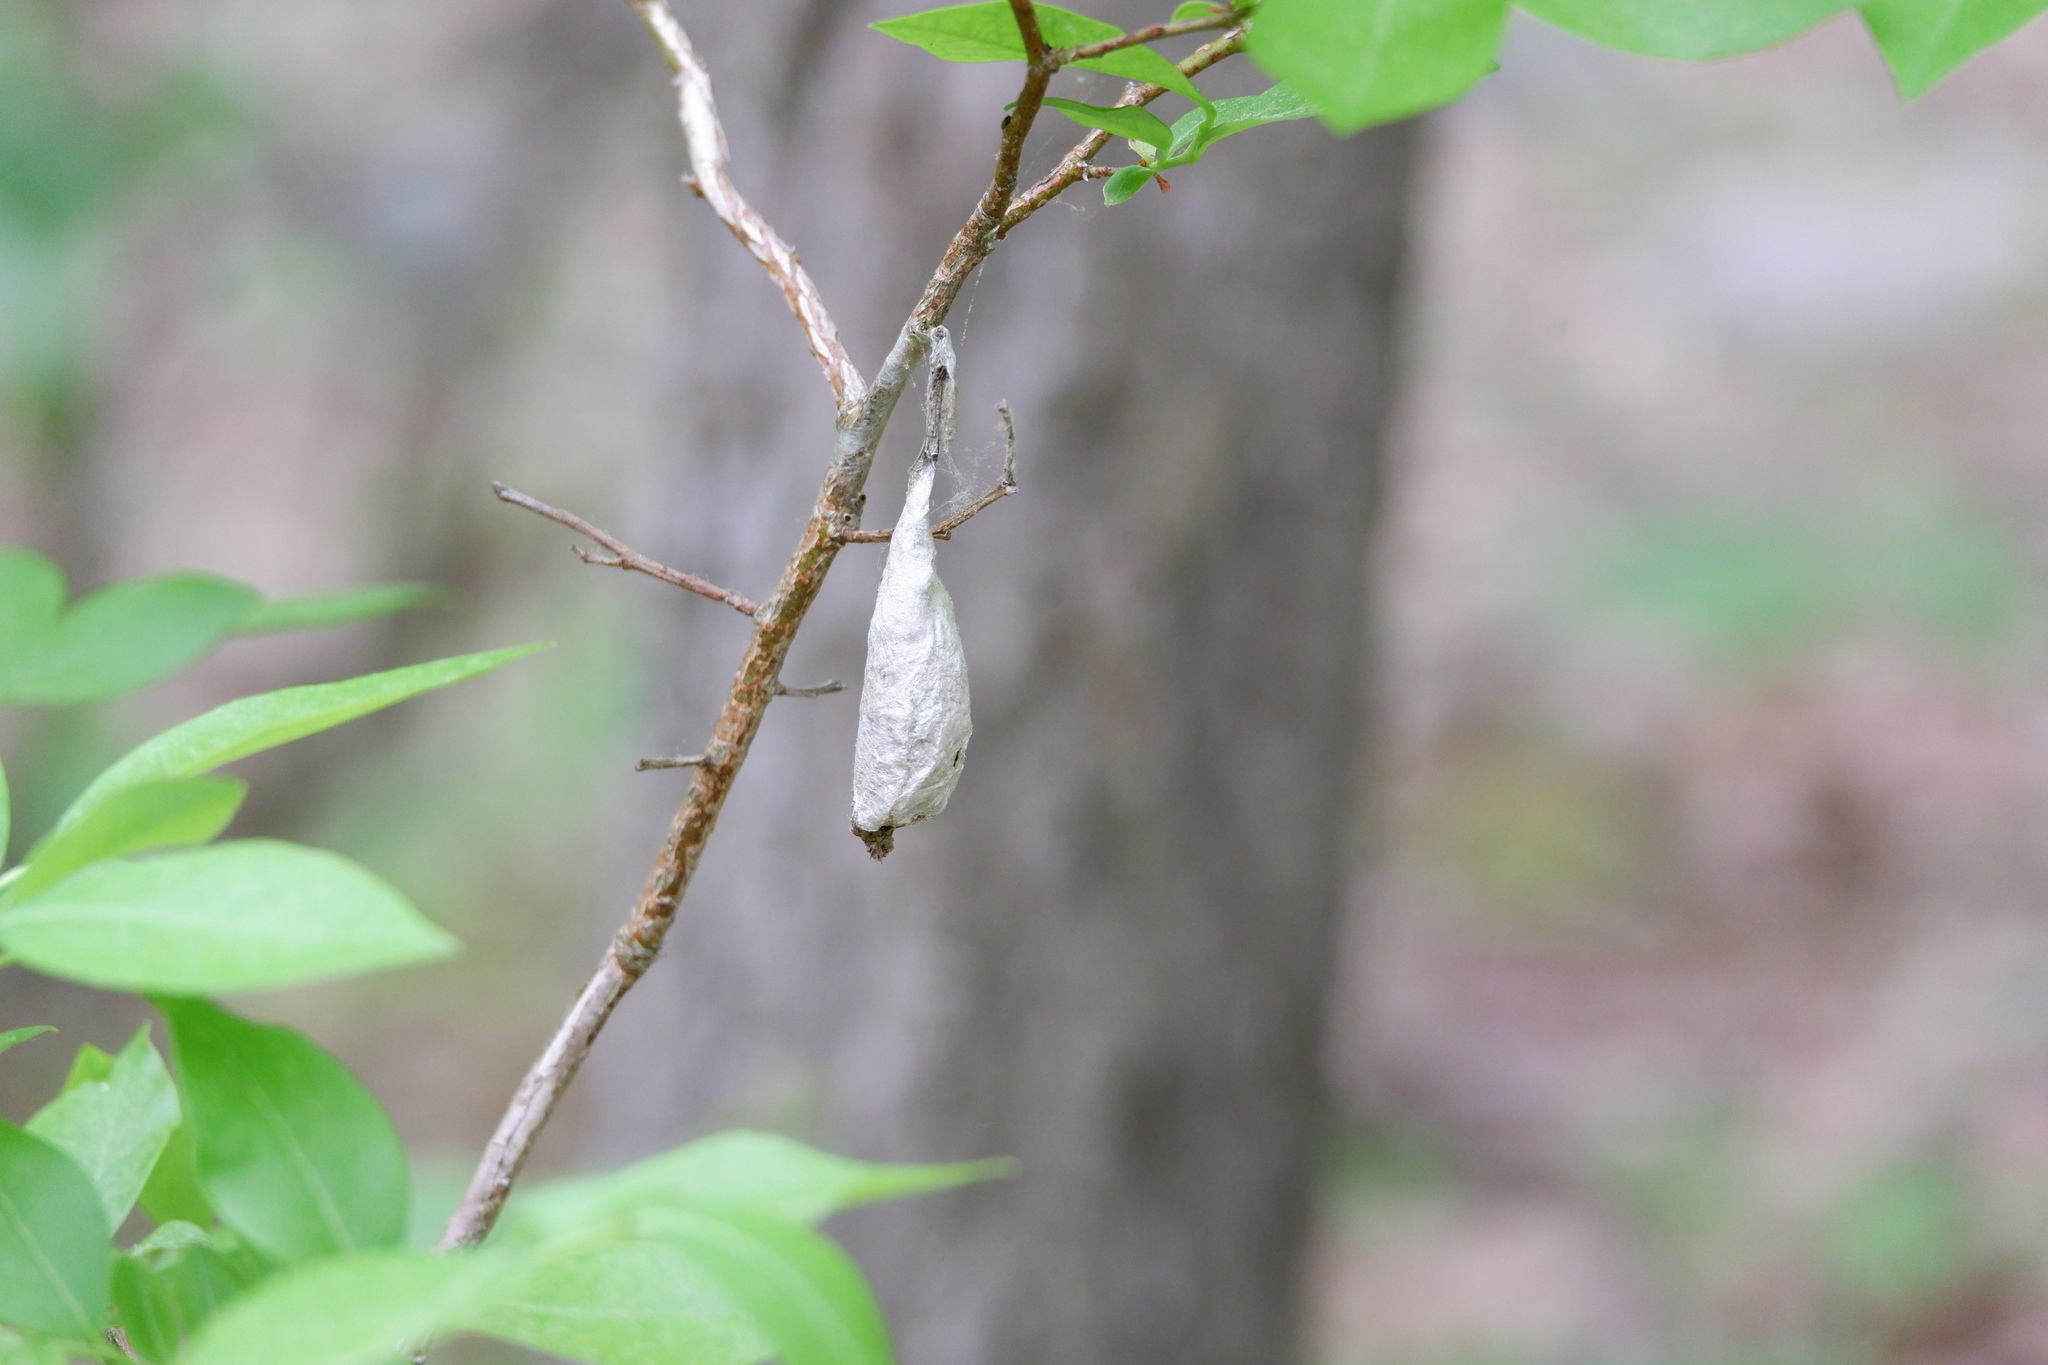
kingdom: Animalia
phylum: Arthropoda
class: Insecta
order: Lepidoptera
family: Saturniidae
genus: Callosamia
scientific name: Callosamia promethea
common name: Promethea silkmoth
